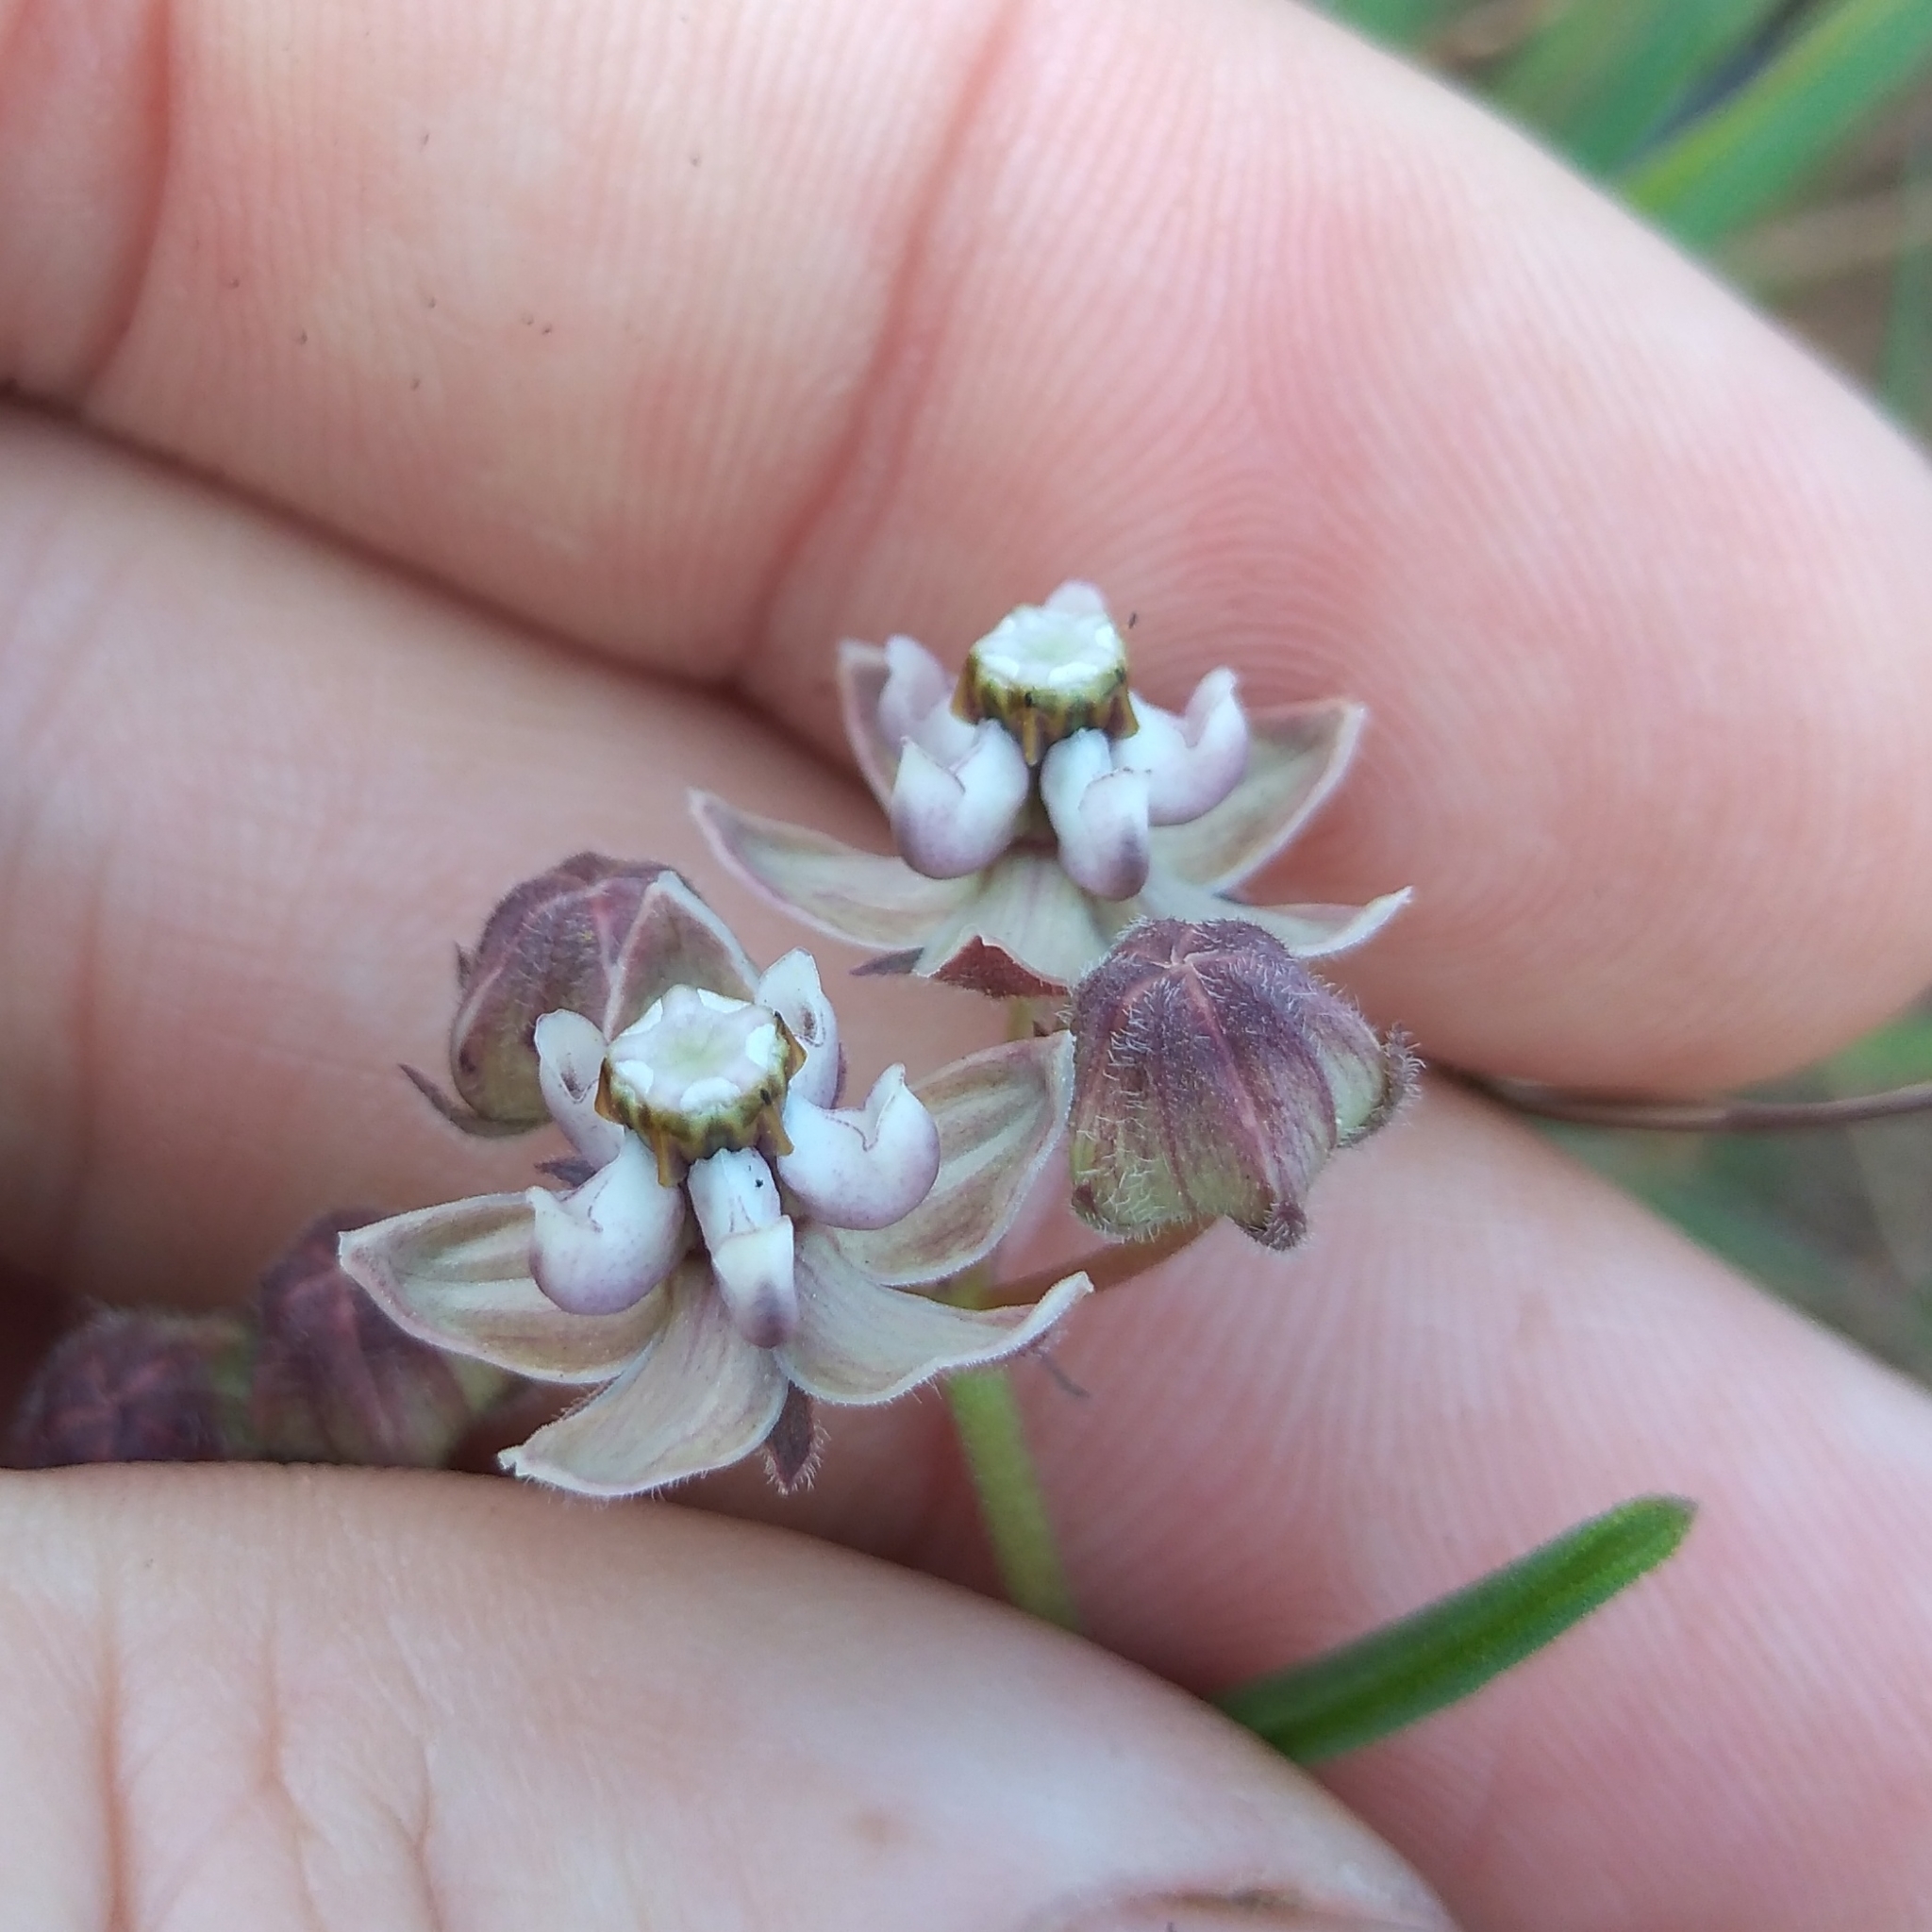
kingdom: Plantae
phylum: Tracheophyta
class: Magnoliopsida
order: Gentianales
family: Apocynaceae
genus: Asclepias
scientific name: Asclepias cucullata
